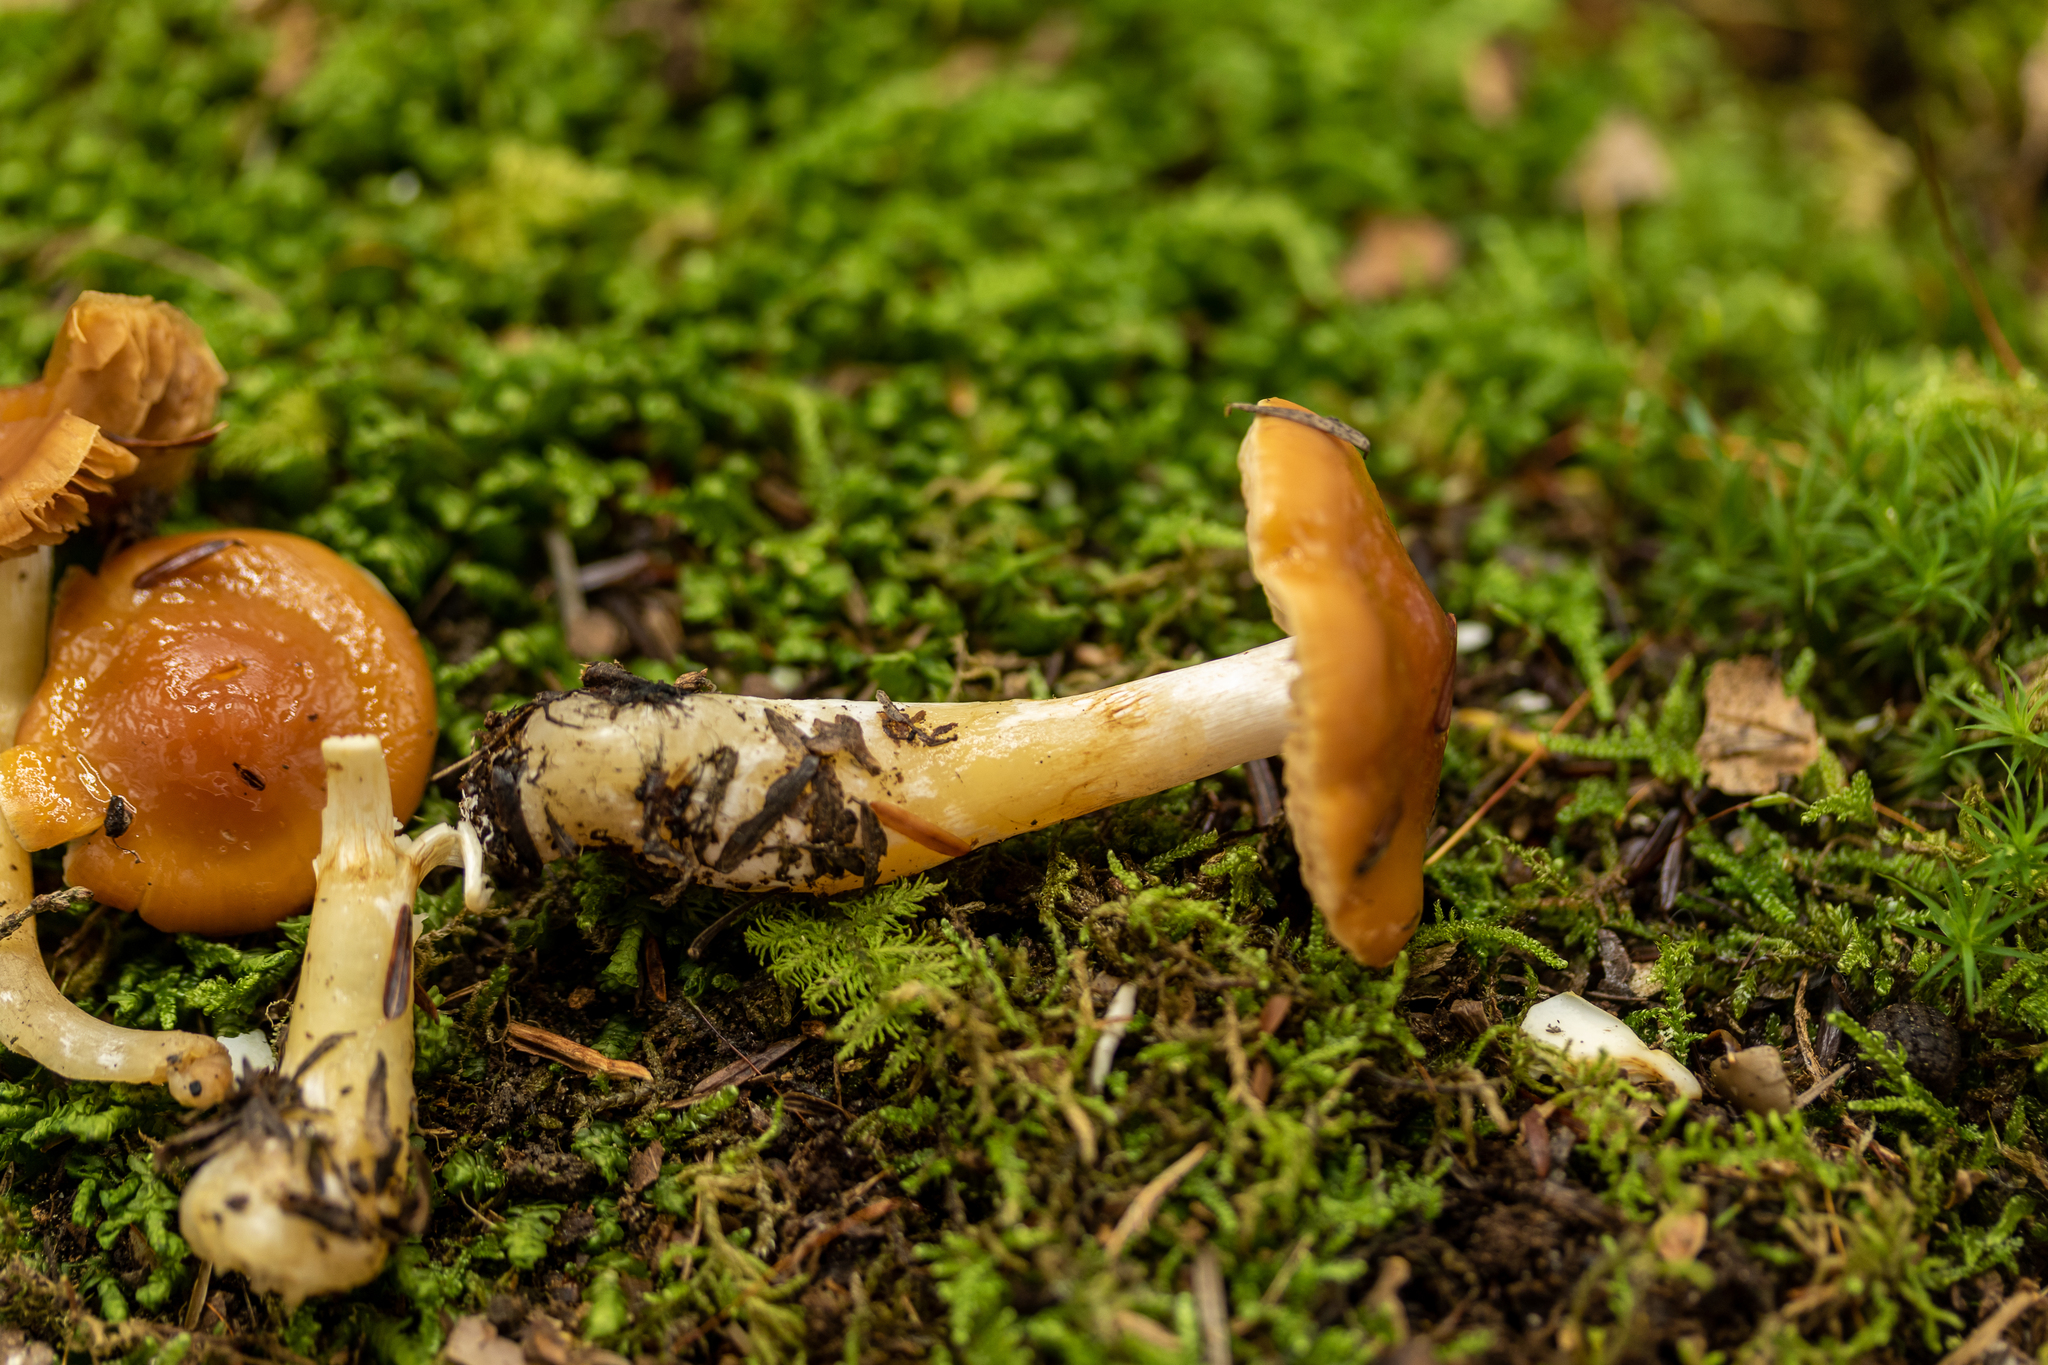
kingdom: Fungi
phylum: Basidiomycota
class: Agaricomycetes
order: Agaricales
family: Cortinariaceae
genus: Thaxterogaster
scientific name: Thaxterogaster causticus
